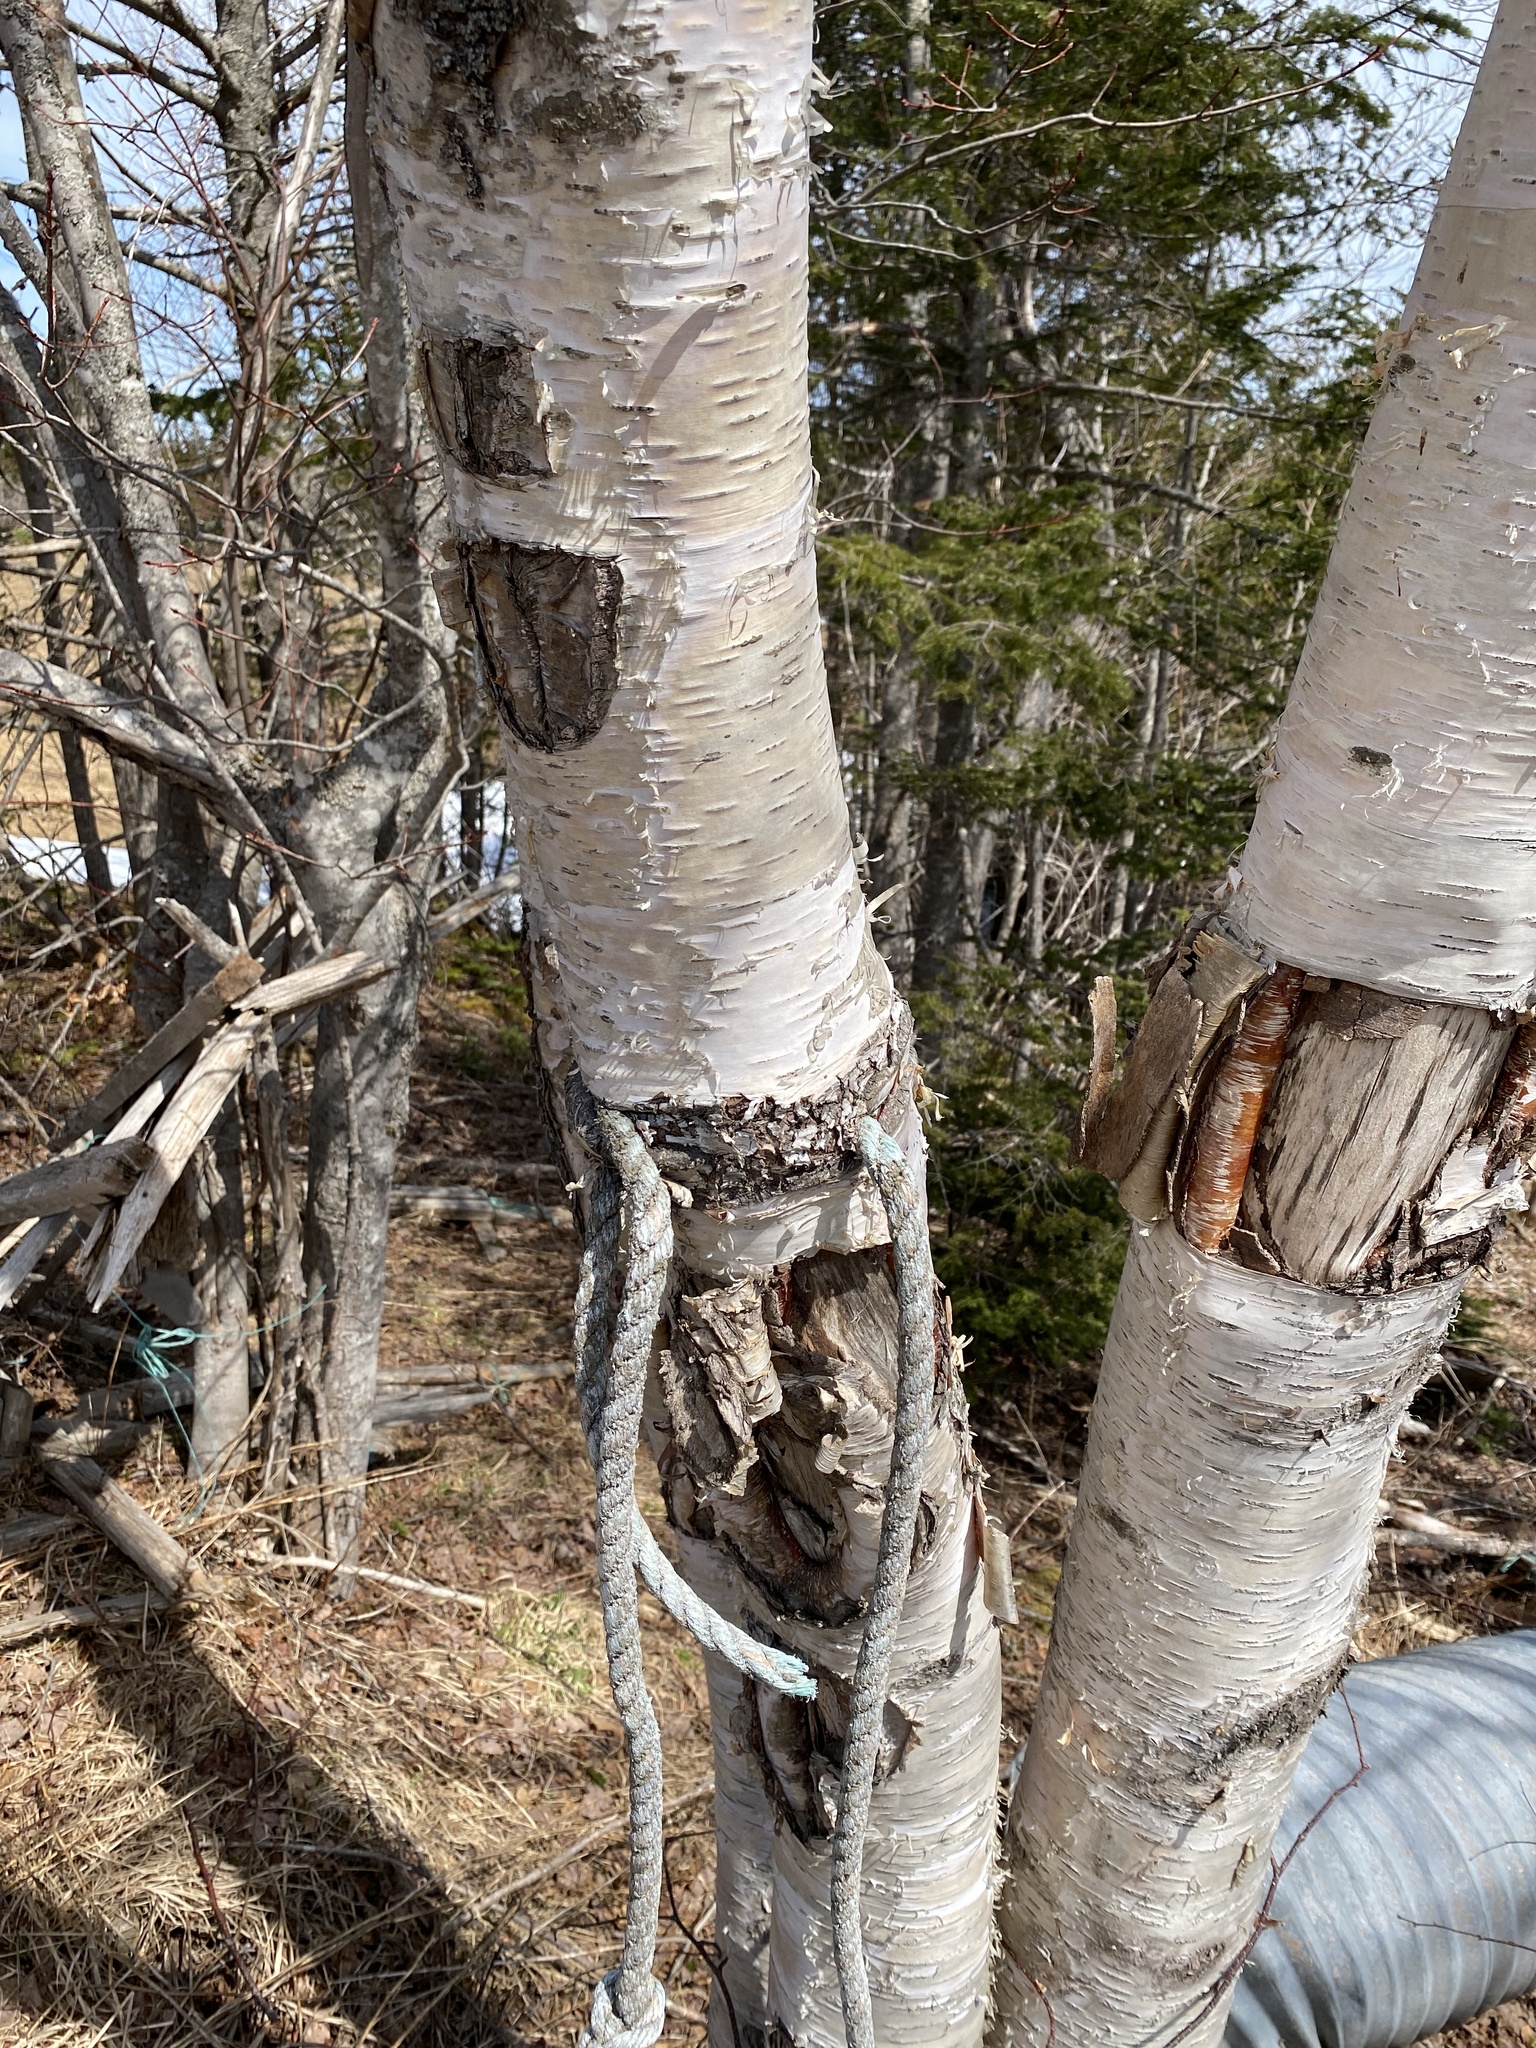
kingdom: Plantae
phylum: Tracheophyta
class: Magnoliopsida
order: Fagales
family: Betulaceae
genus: Betula
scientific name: Betula papyrifera
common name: Paper birch
